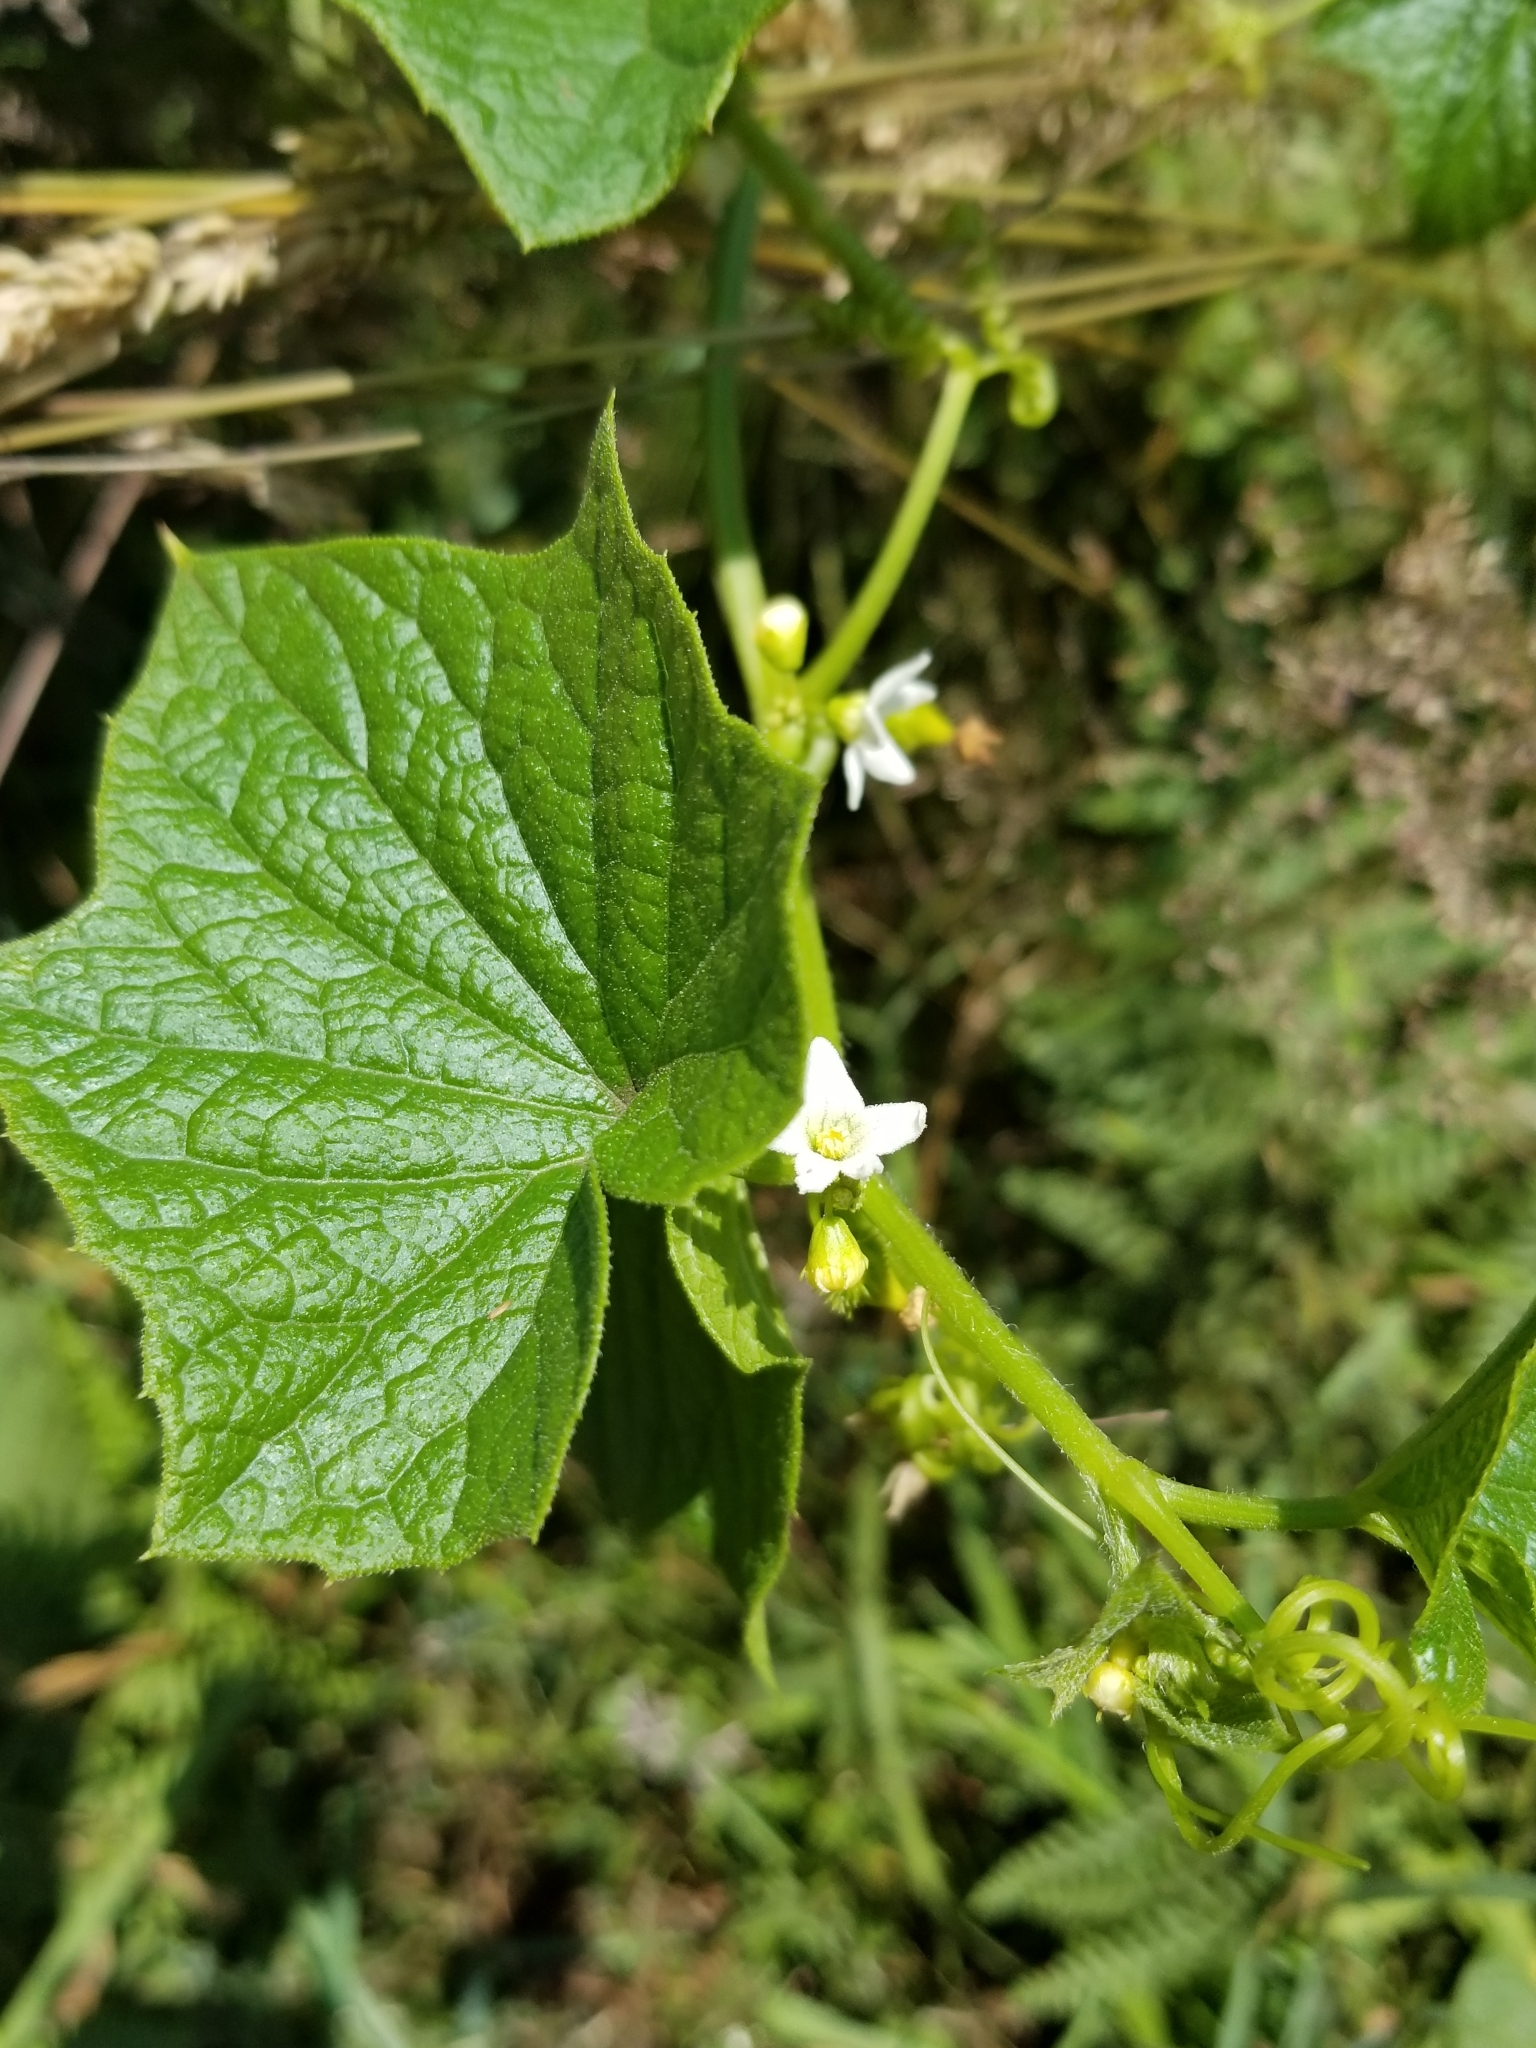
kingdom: Plantae
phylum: Tracheophyta
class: Magnoliopsida
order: Cucurbitales
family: Cucurbitaceae
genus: Marah
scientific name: Marah oregana
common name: Coastal manroot
